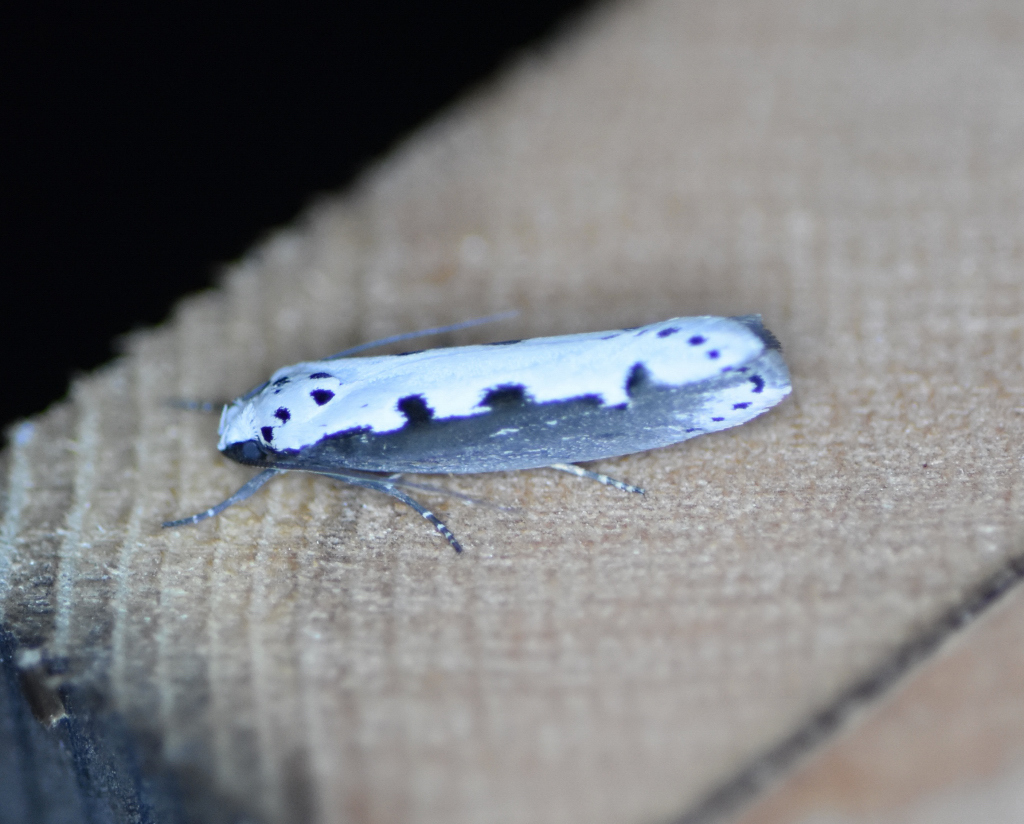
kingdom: Animalia
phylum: Arthropoda
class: Insecta
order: Lepidoptera
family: Ethmiidae
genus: Ethmia
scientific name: Ethmia bipunctella
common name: Bordered ermel
